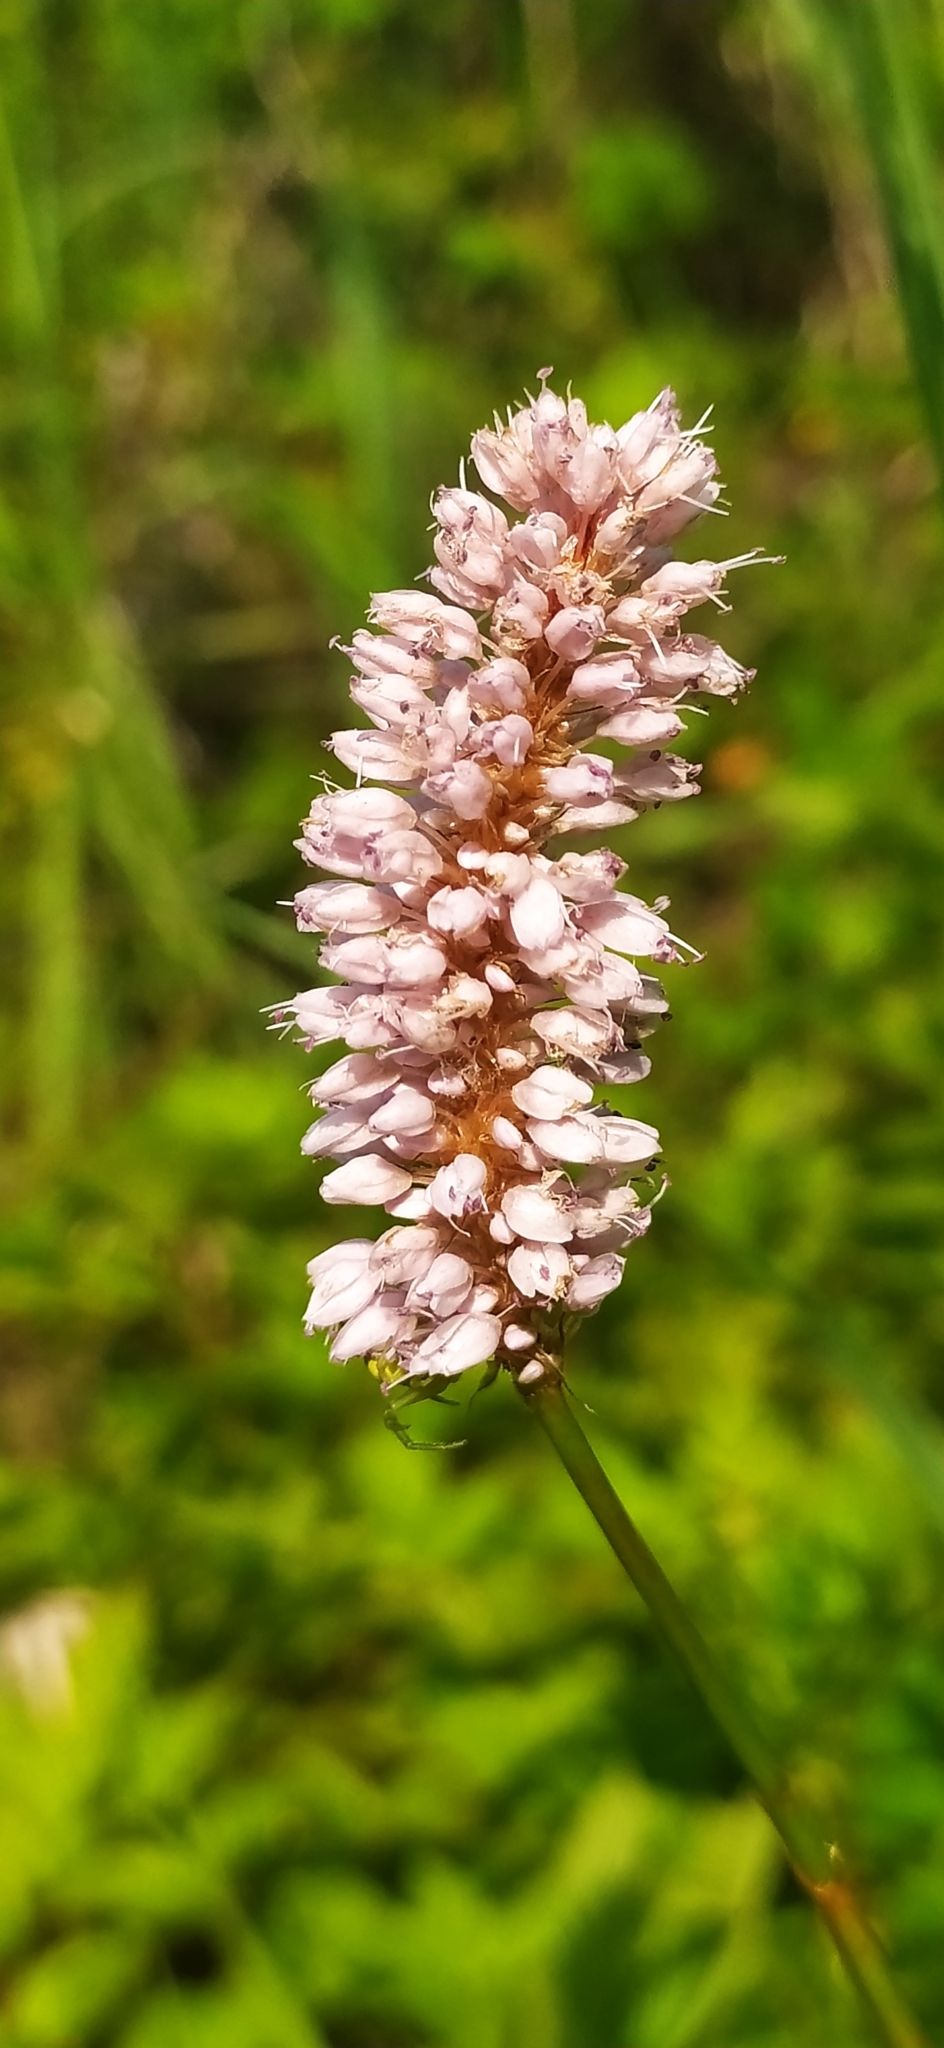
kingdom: Plantae
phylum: Tracheophyta
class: Magnoliopsida
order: Caryophyllales
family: Polygonaceae
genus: Bistorta
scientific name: Bistorta officinalis
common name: Common bistort
